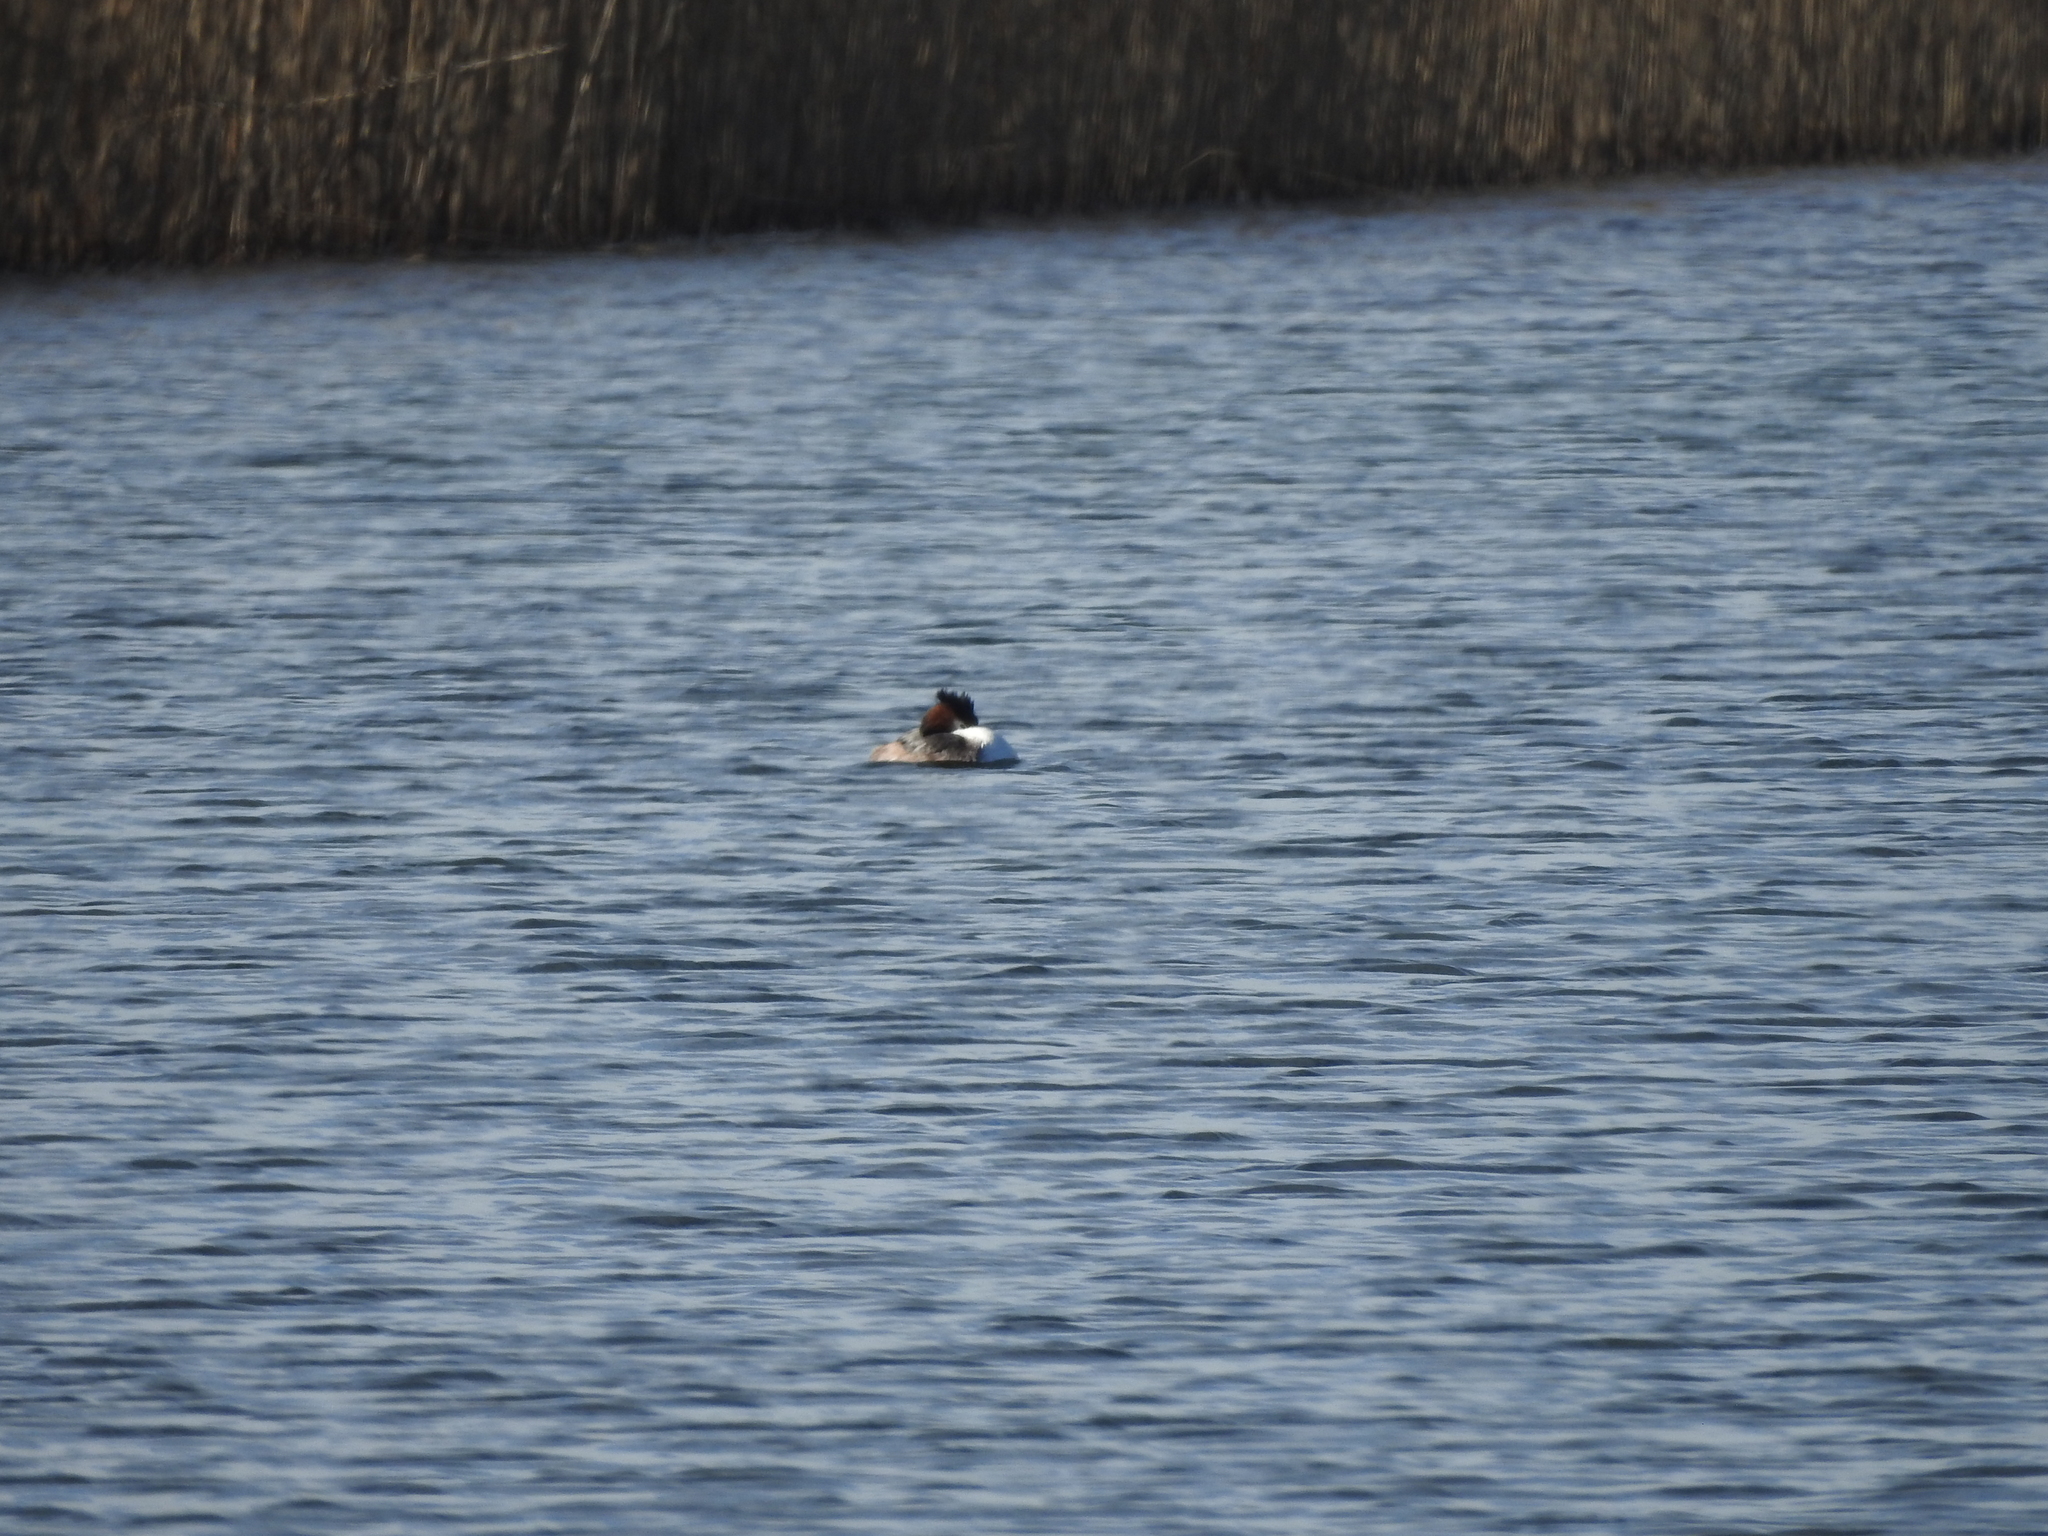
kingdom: Animalia
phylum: Chordata
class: Aves
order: Podicipediformes
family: Podicipedidae
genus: Podiceps
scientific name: Podiceps cristatus
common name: Great crested grebe
